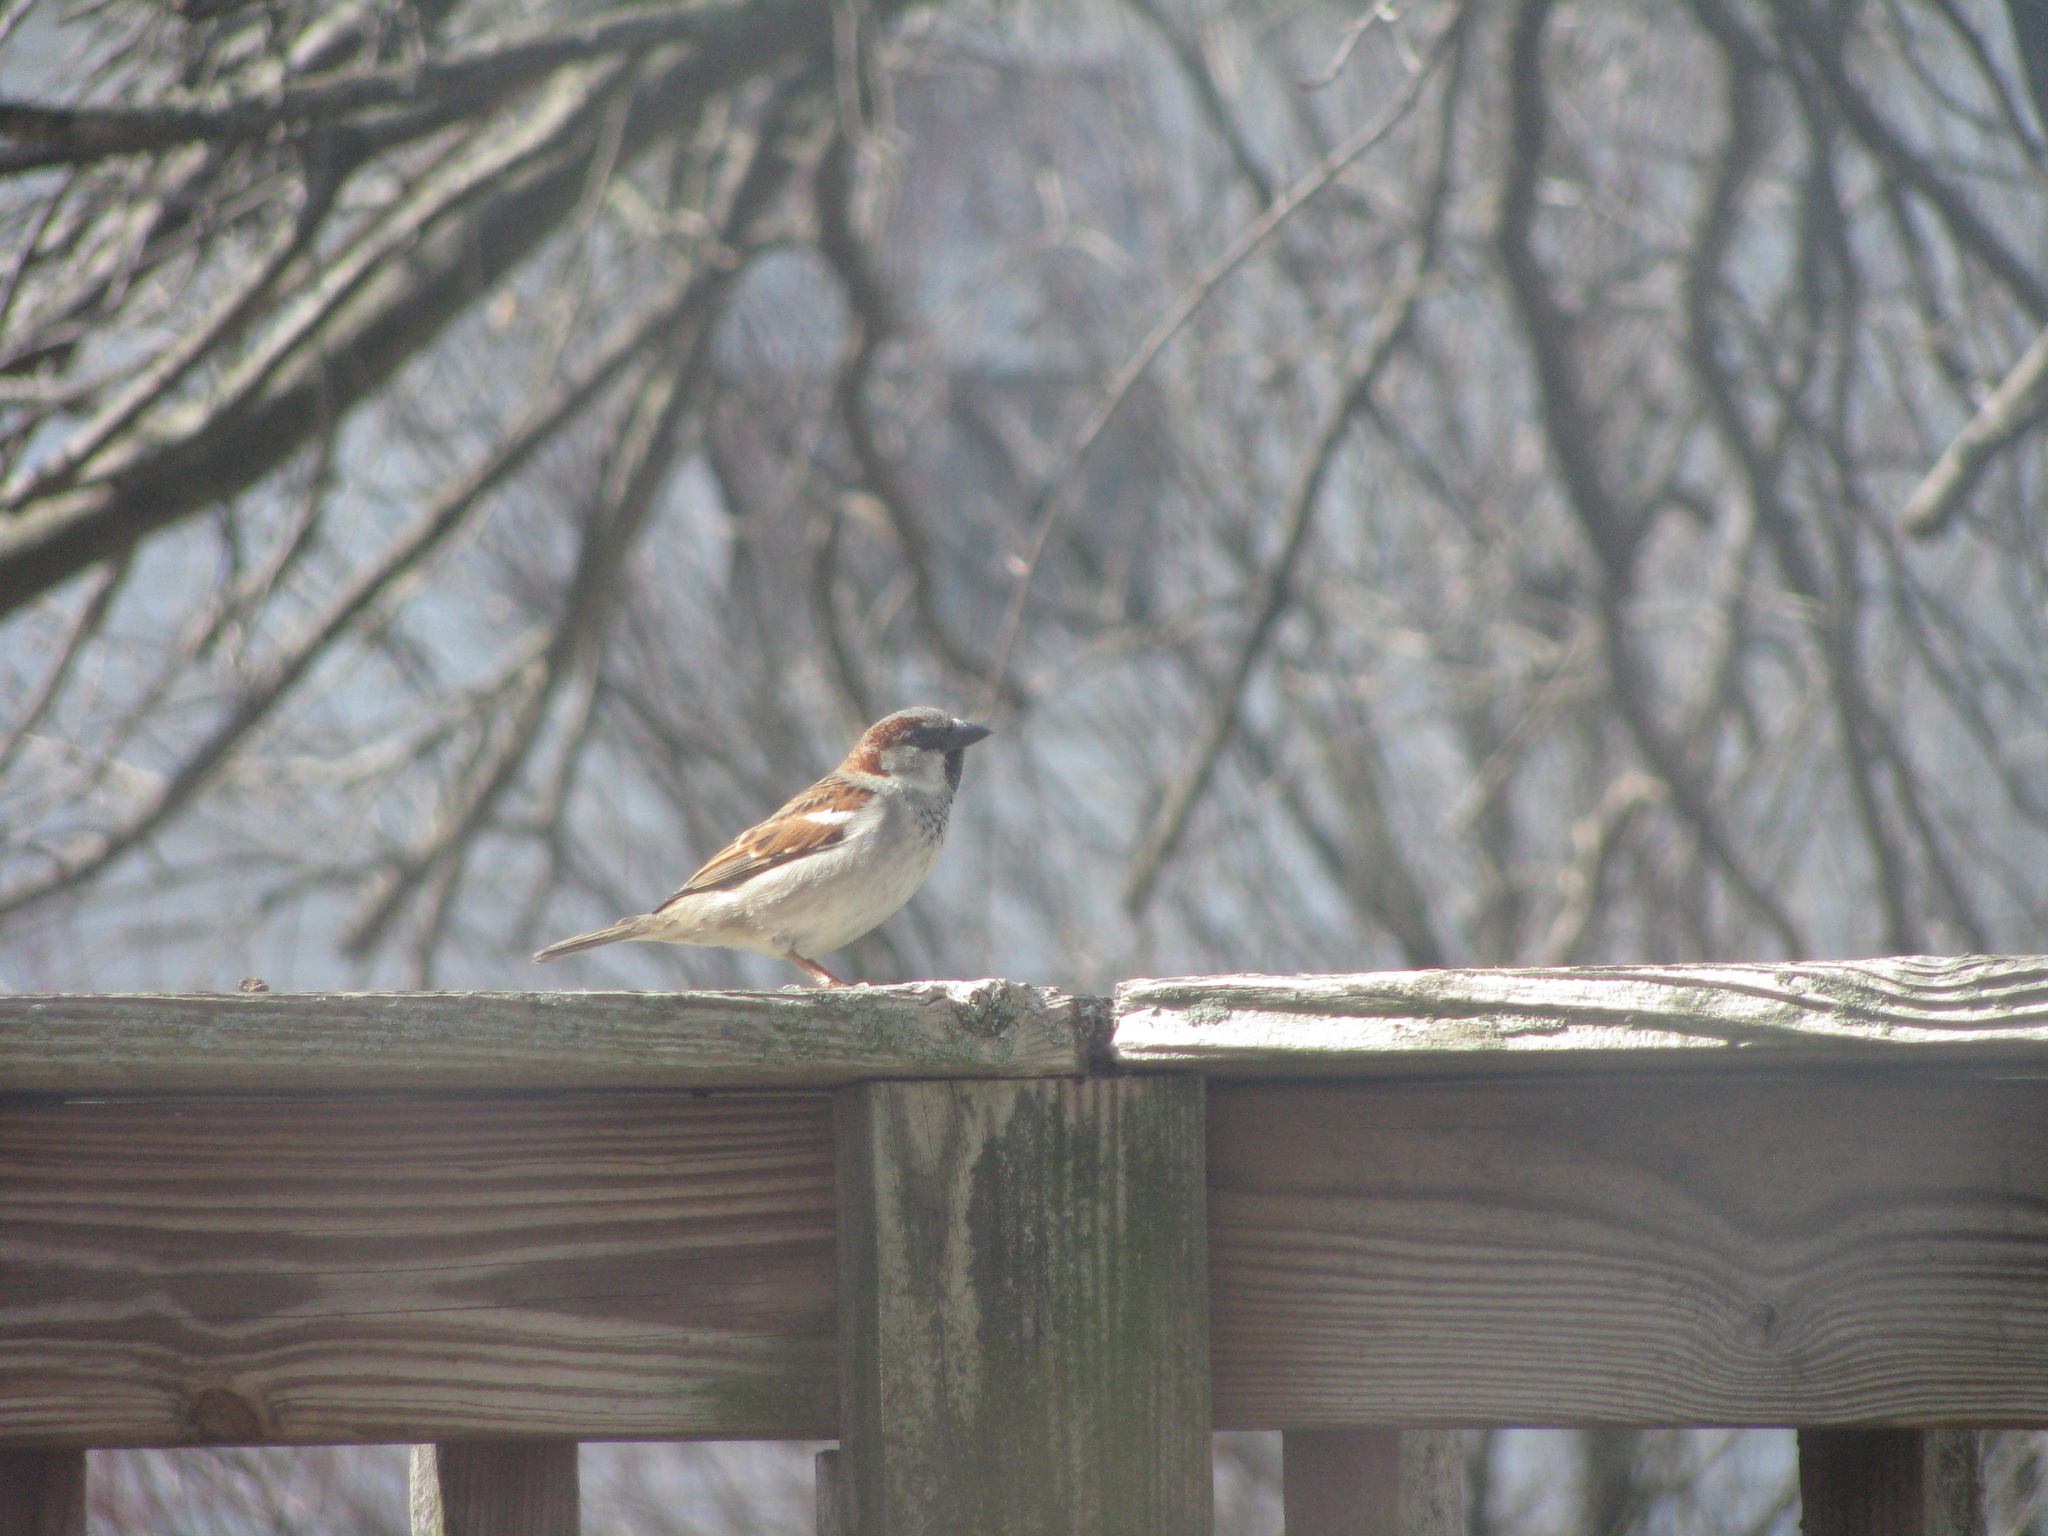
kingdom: Animalia
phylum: Chordata
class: Aves
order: Passeriformes
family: Passeridae
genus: Passer
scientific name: Passer domesticus
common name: House sparrow
